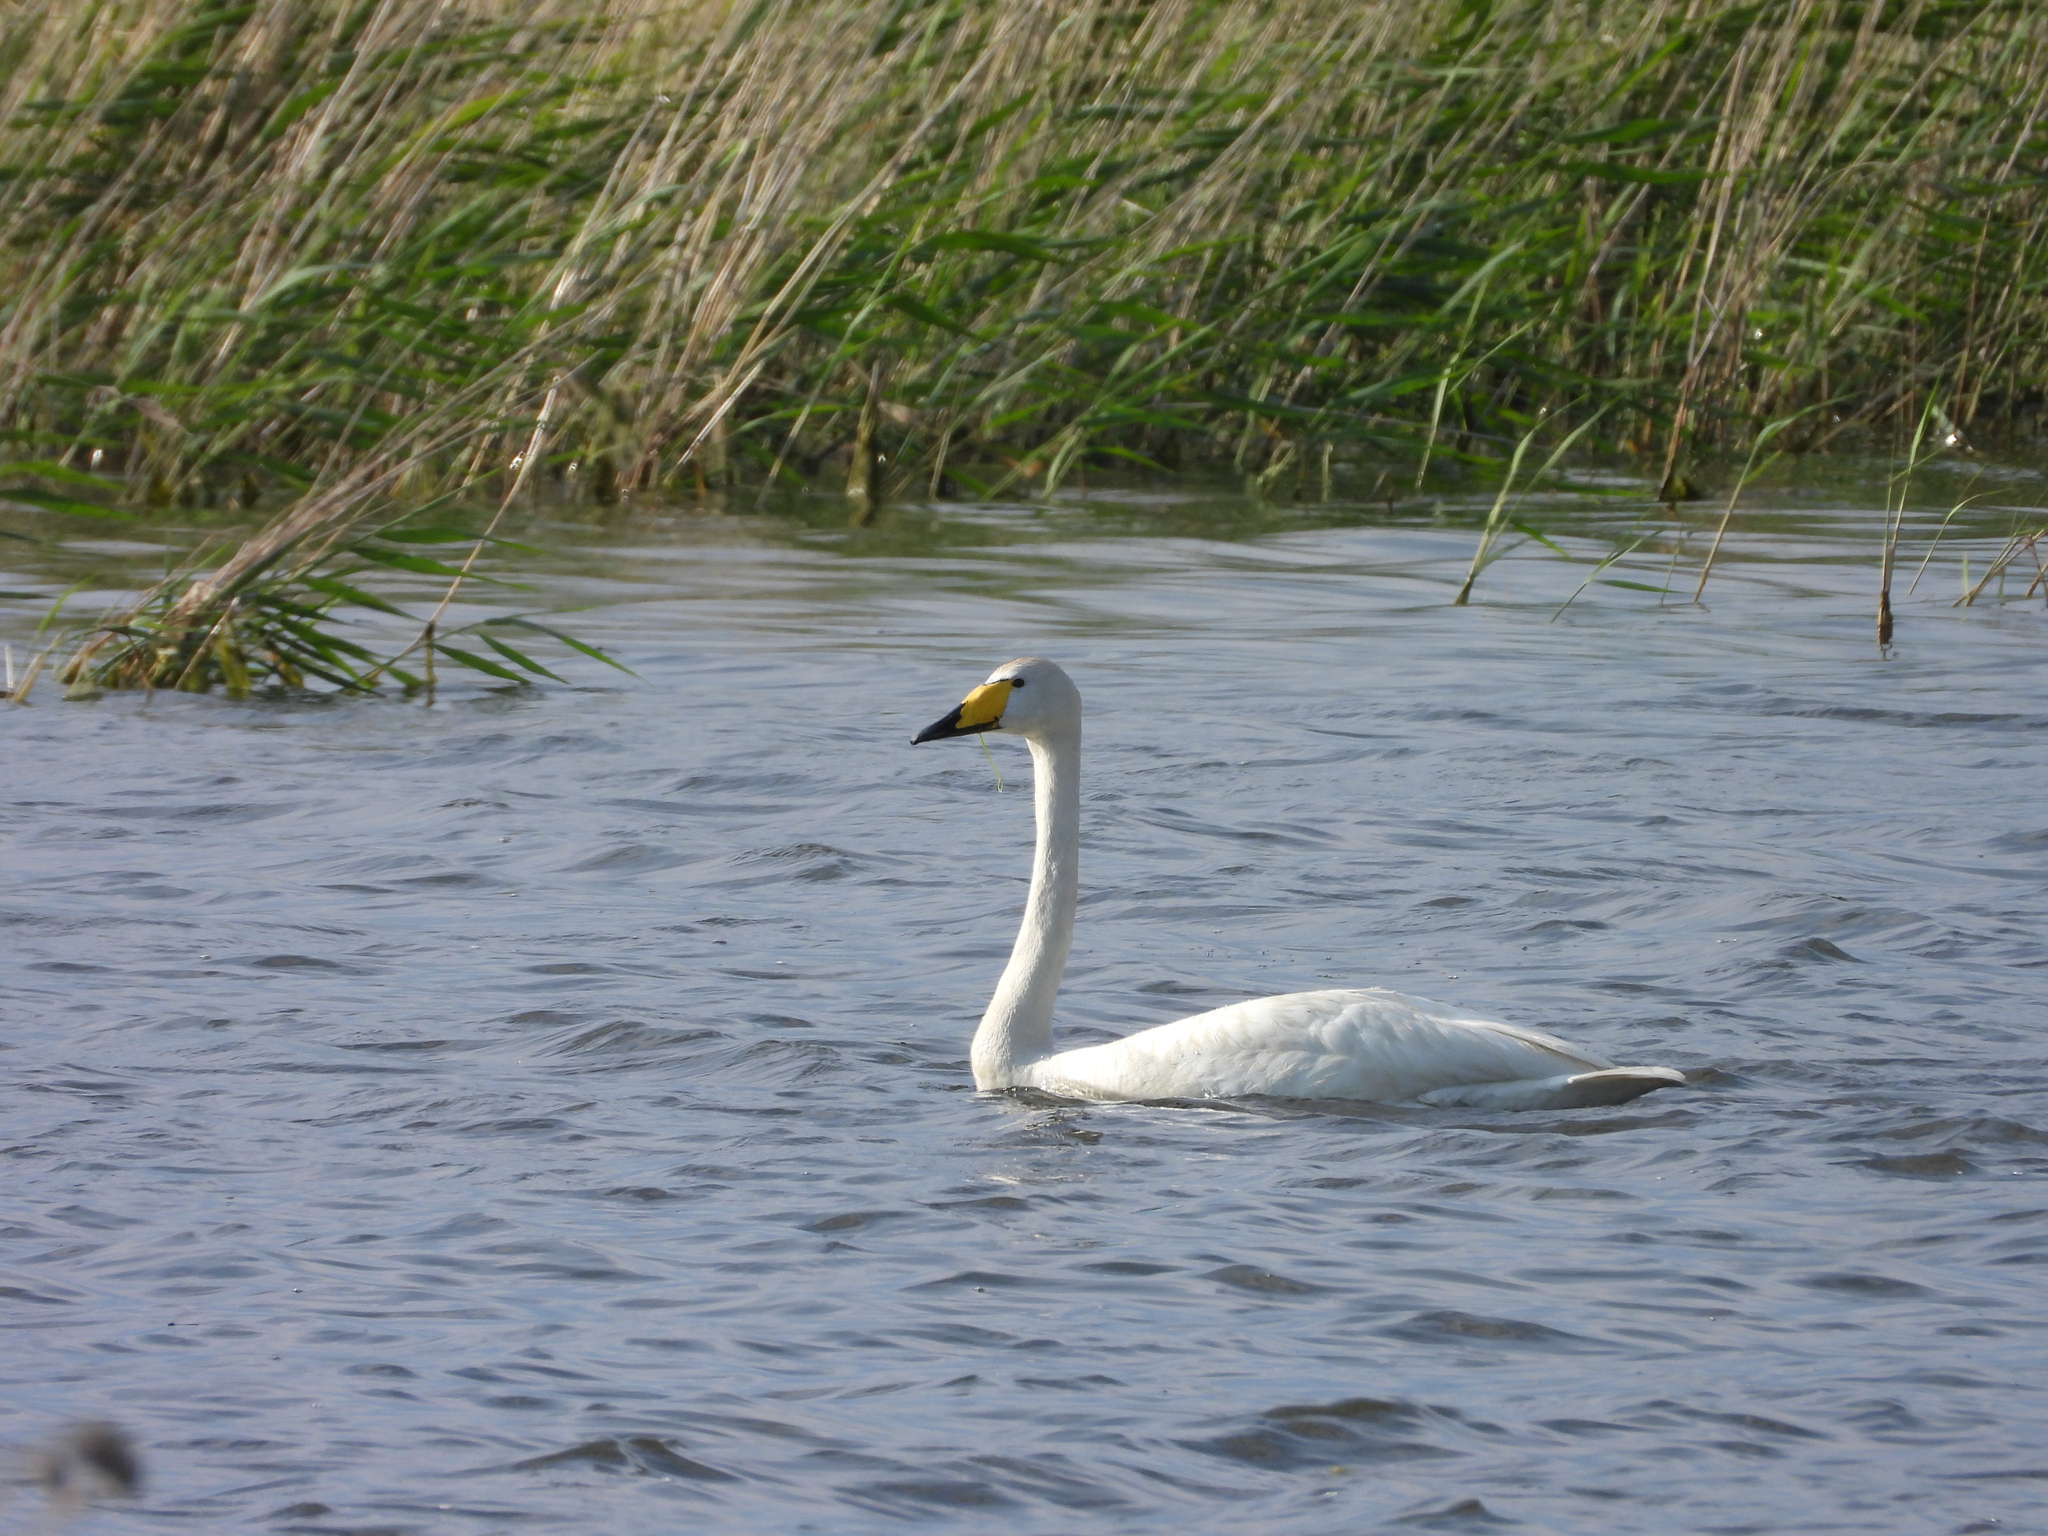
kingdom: Animalia
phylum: Chordata
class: Aves
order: Anseriformes
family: Anatidae
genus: Cygnus
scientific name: Cygnus cygnus
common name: Whooper swan
